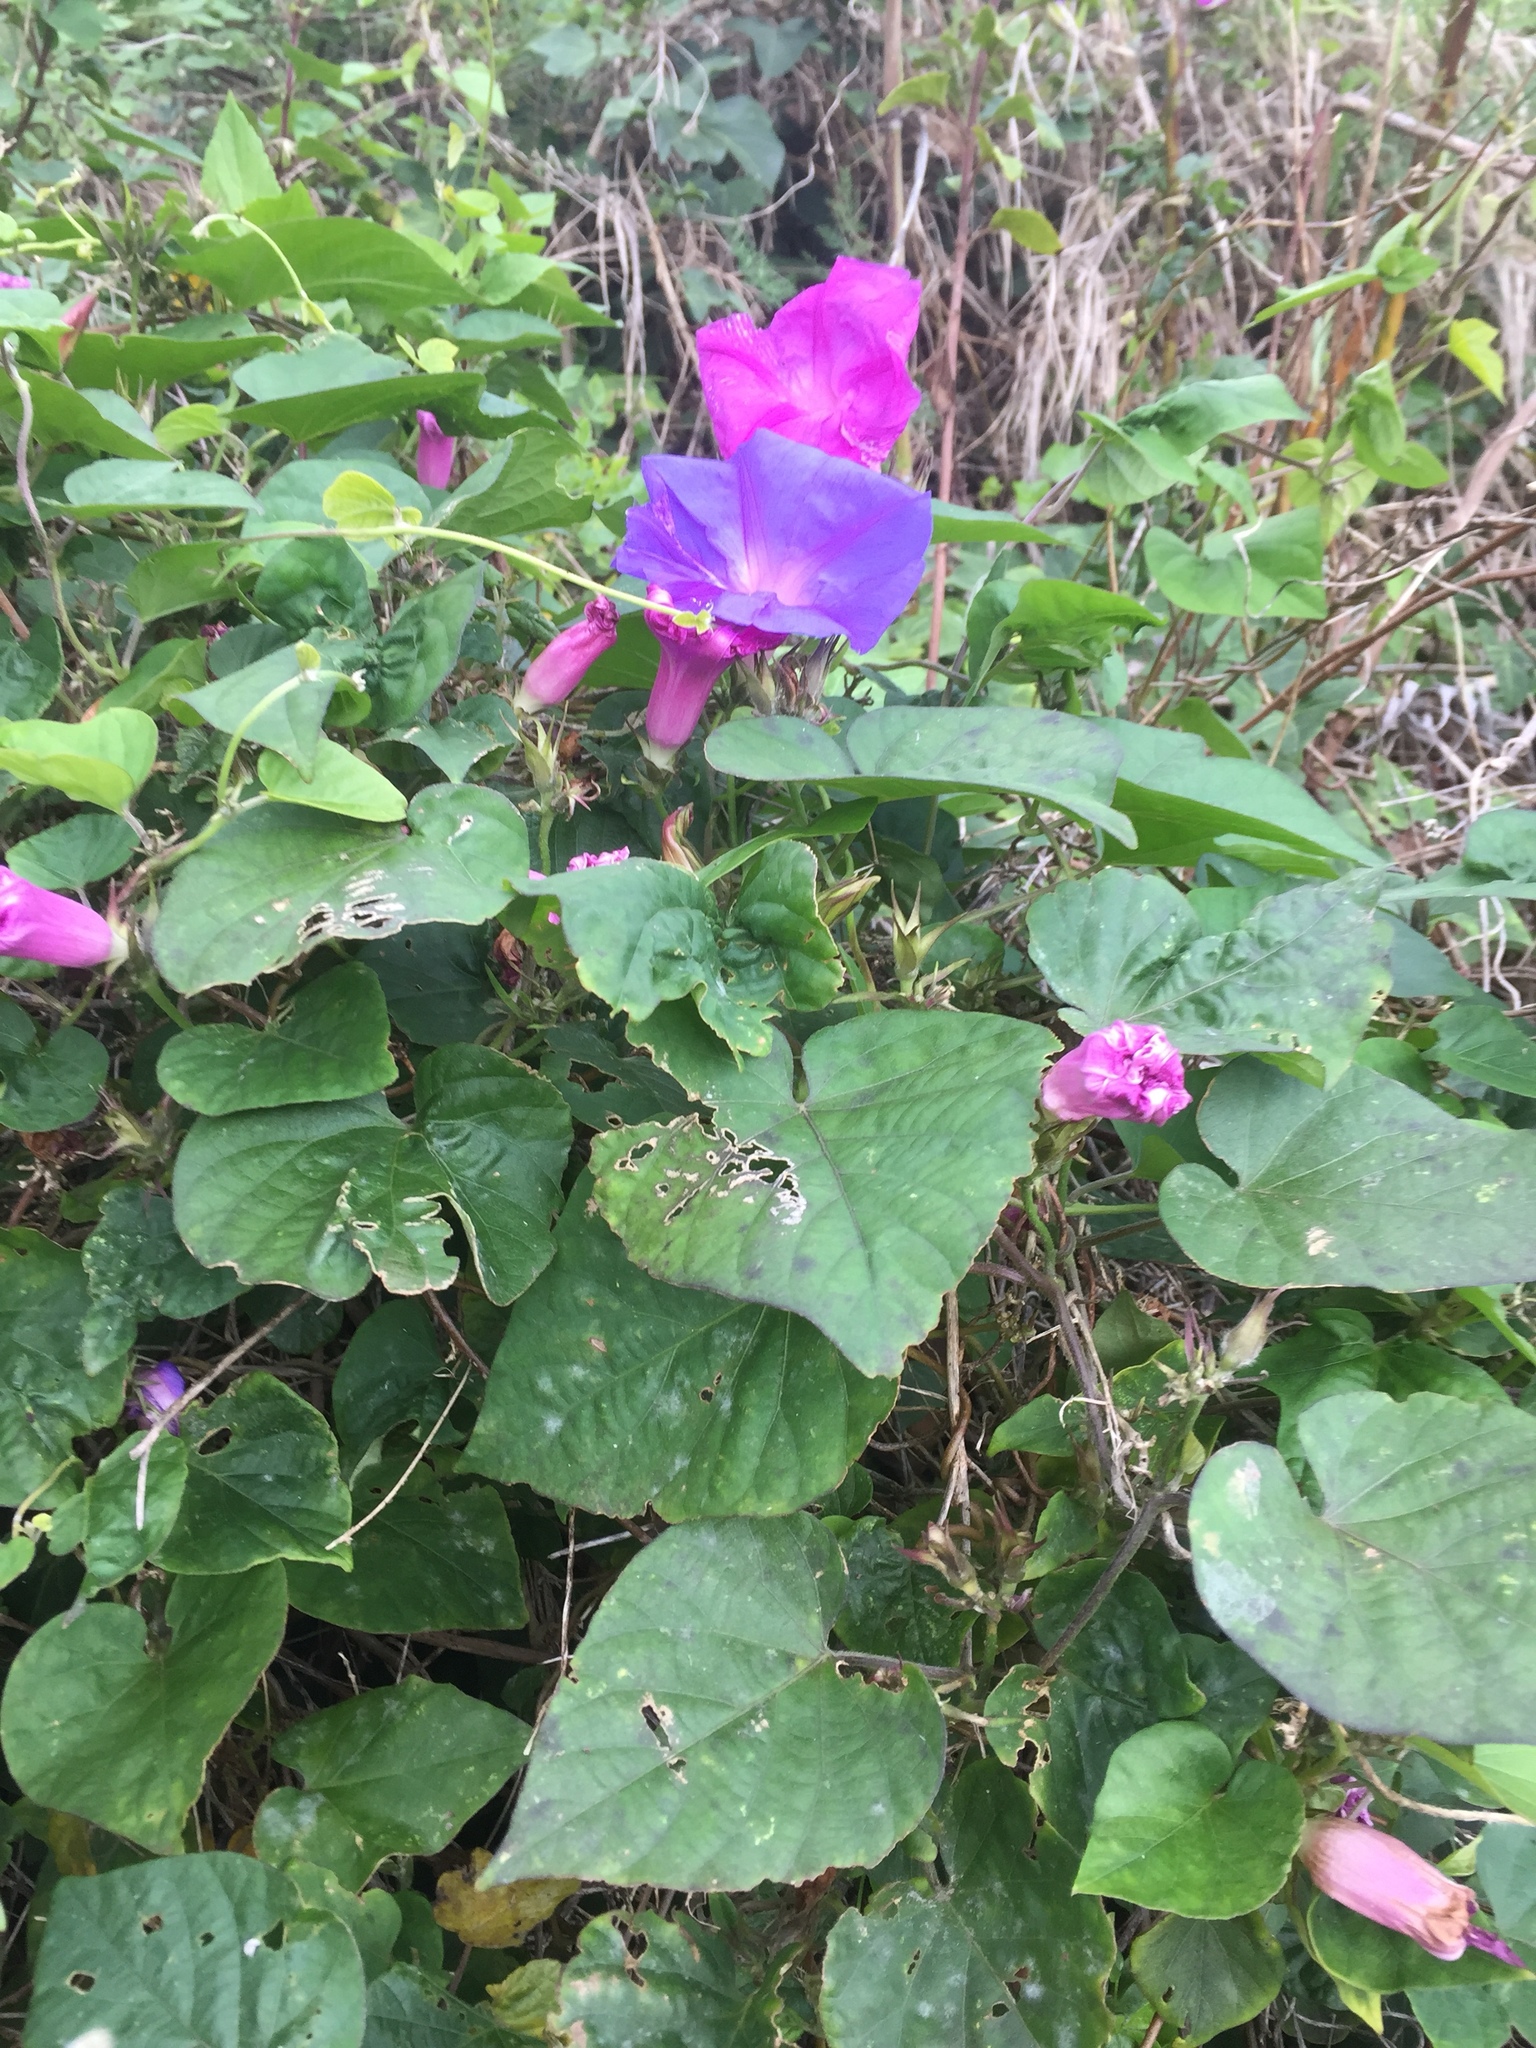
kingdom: Plantae
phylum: Tracheophyta
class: Magnoliopsida
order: Solanales
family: Convolvulaceae
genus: Ipomoea
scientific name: Ipomoea indica
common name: Blue dawnflower
